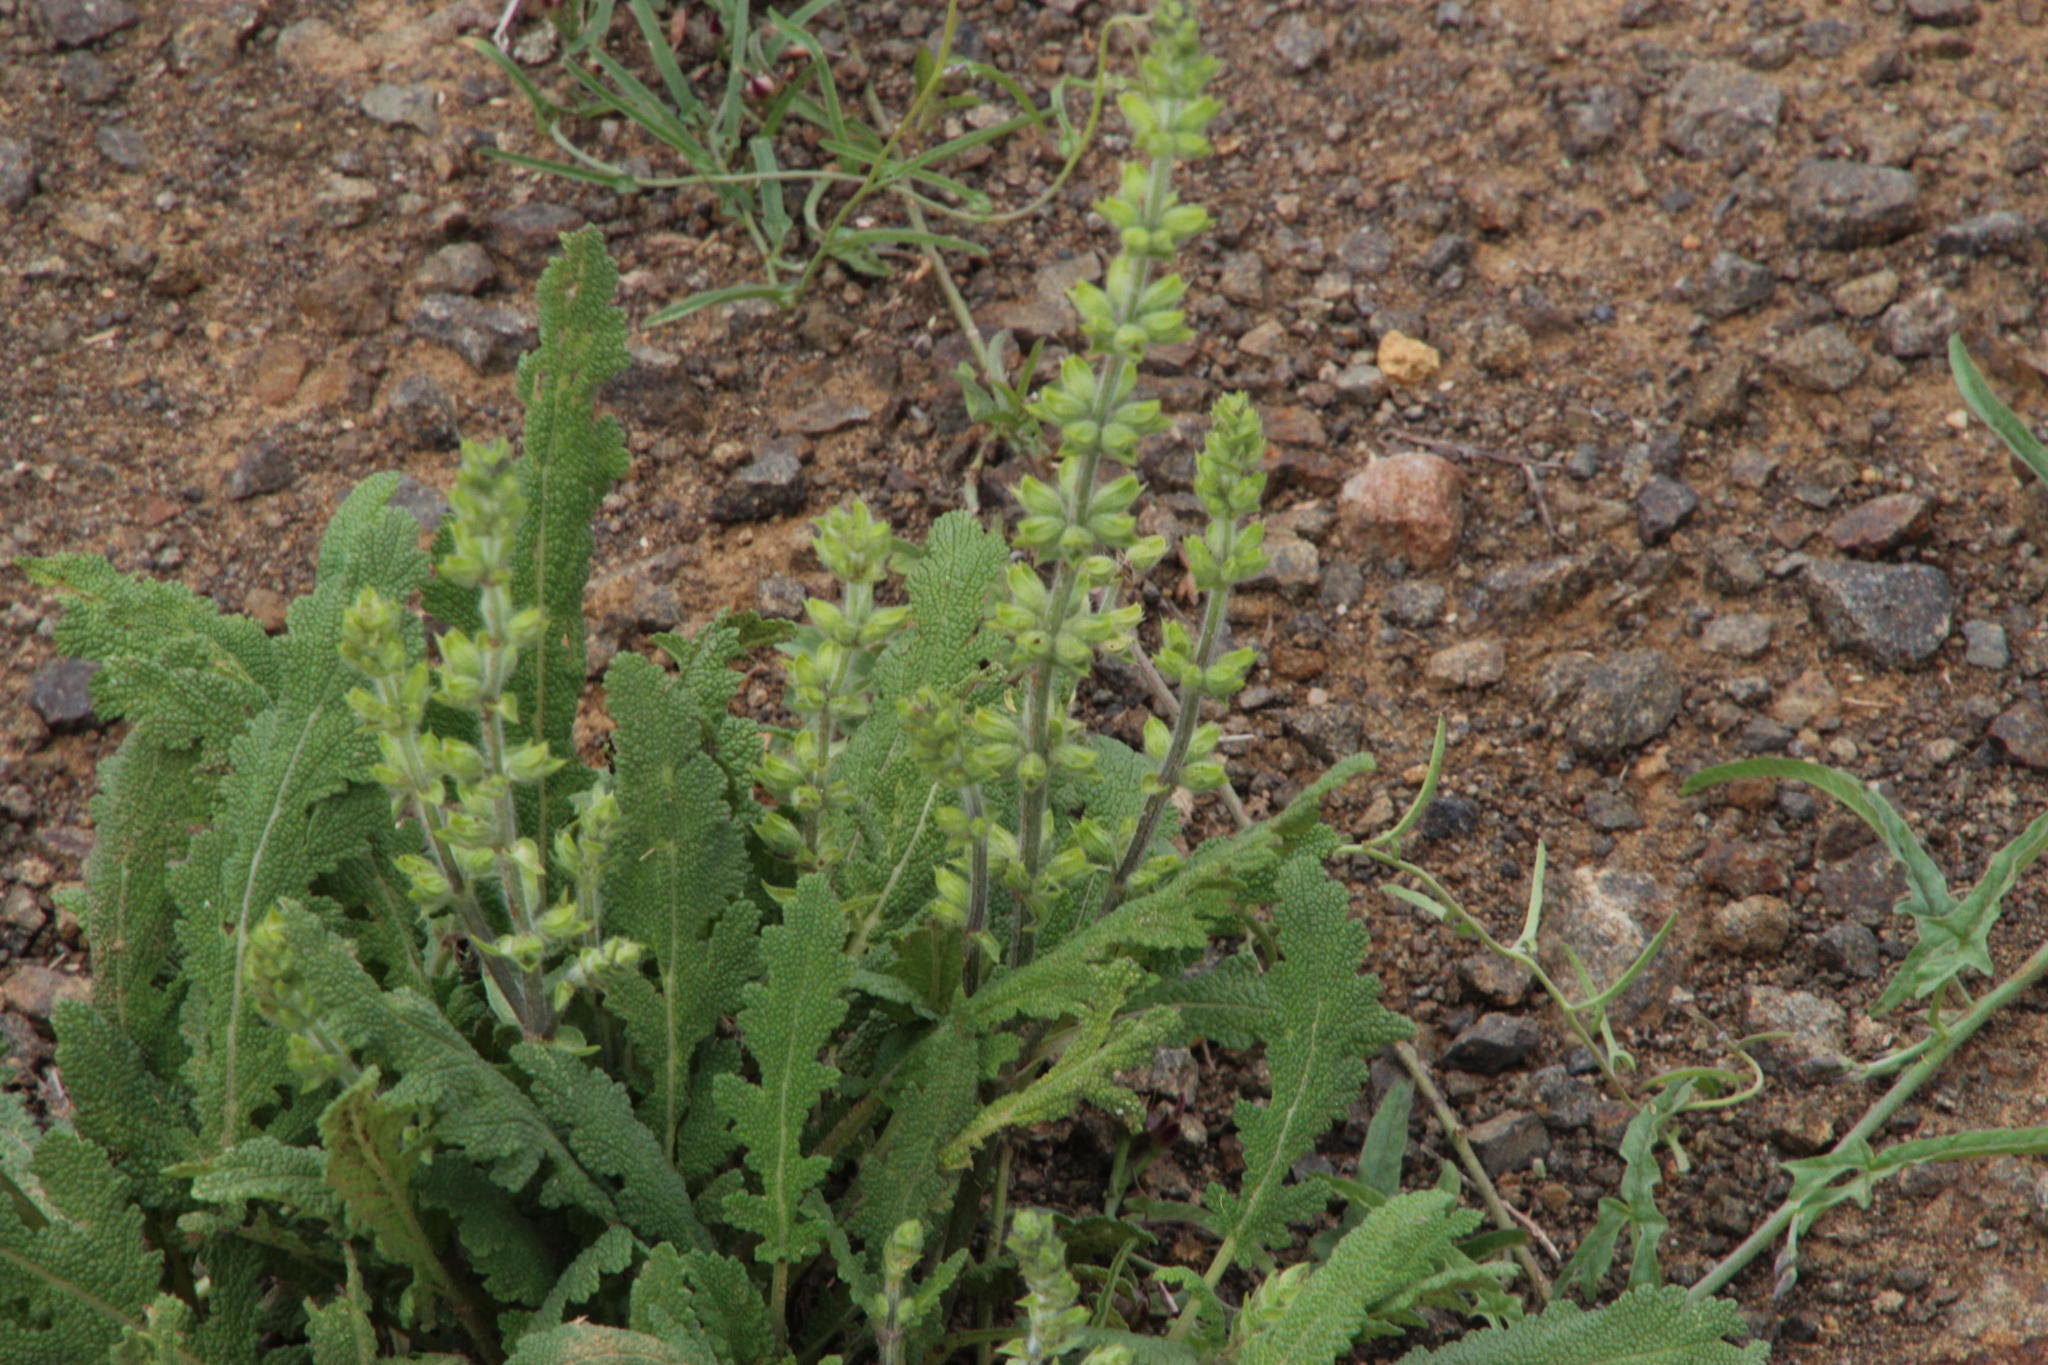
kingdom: Plantae
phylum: Tracheophyta
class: Magnoliopsida
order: Lamiales
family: Lamiaceae
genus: Salvia
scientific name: Salvia verbenaca
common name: Wild clary
